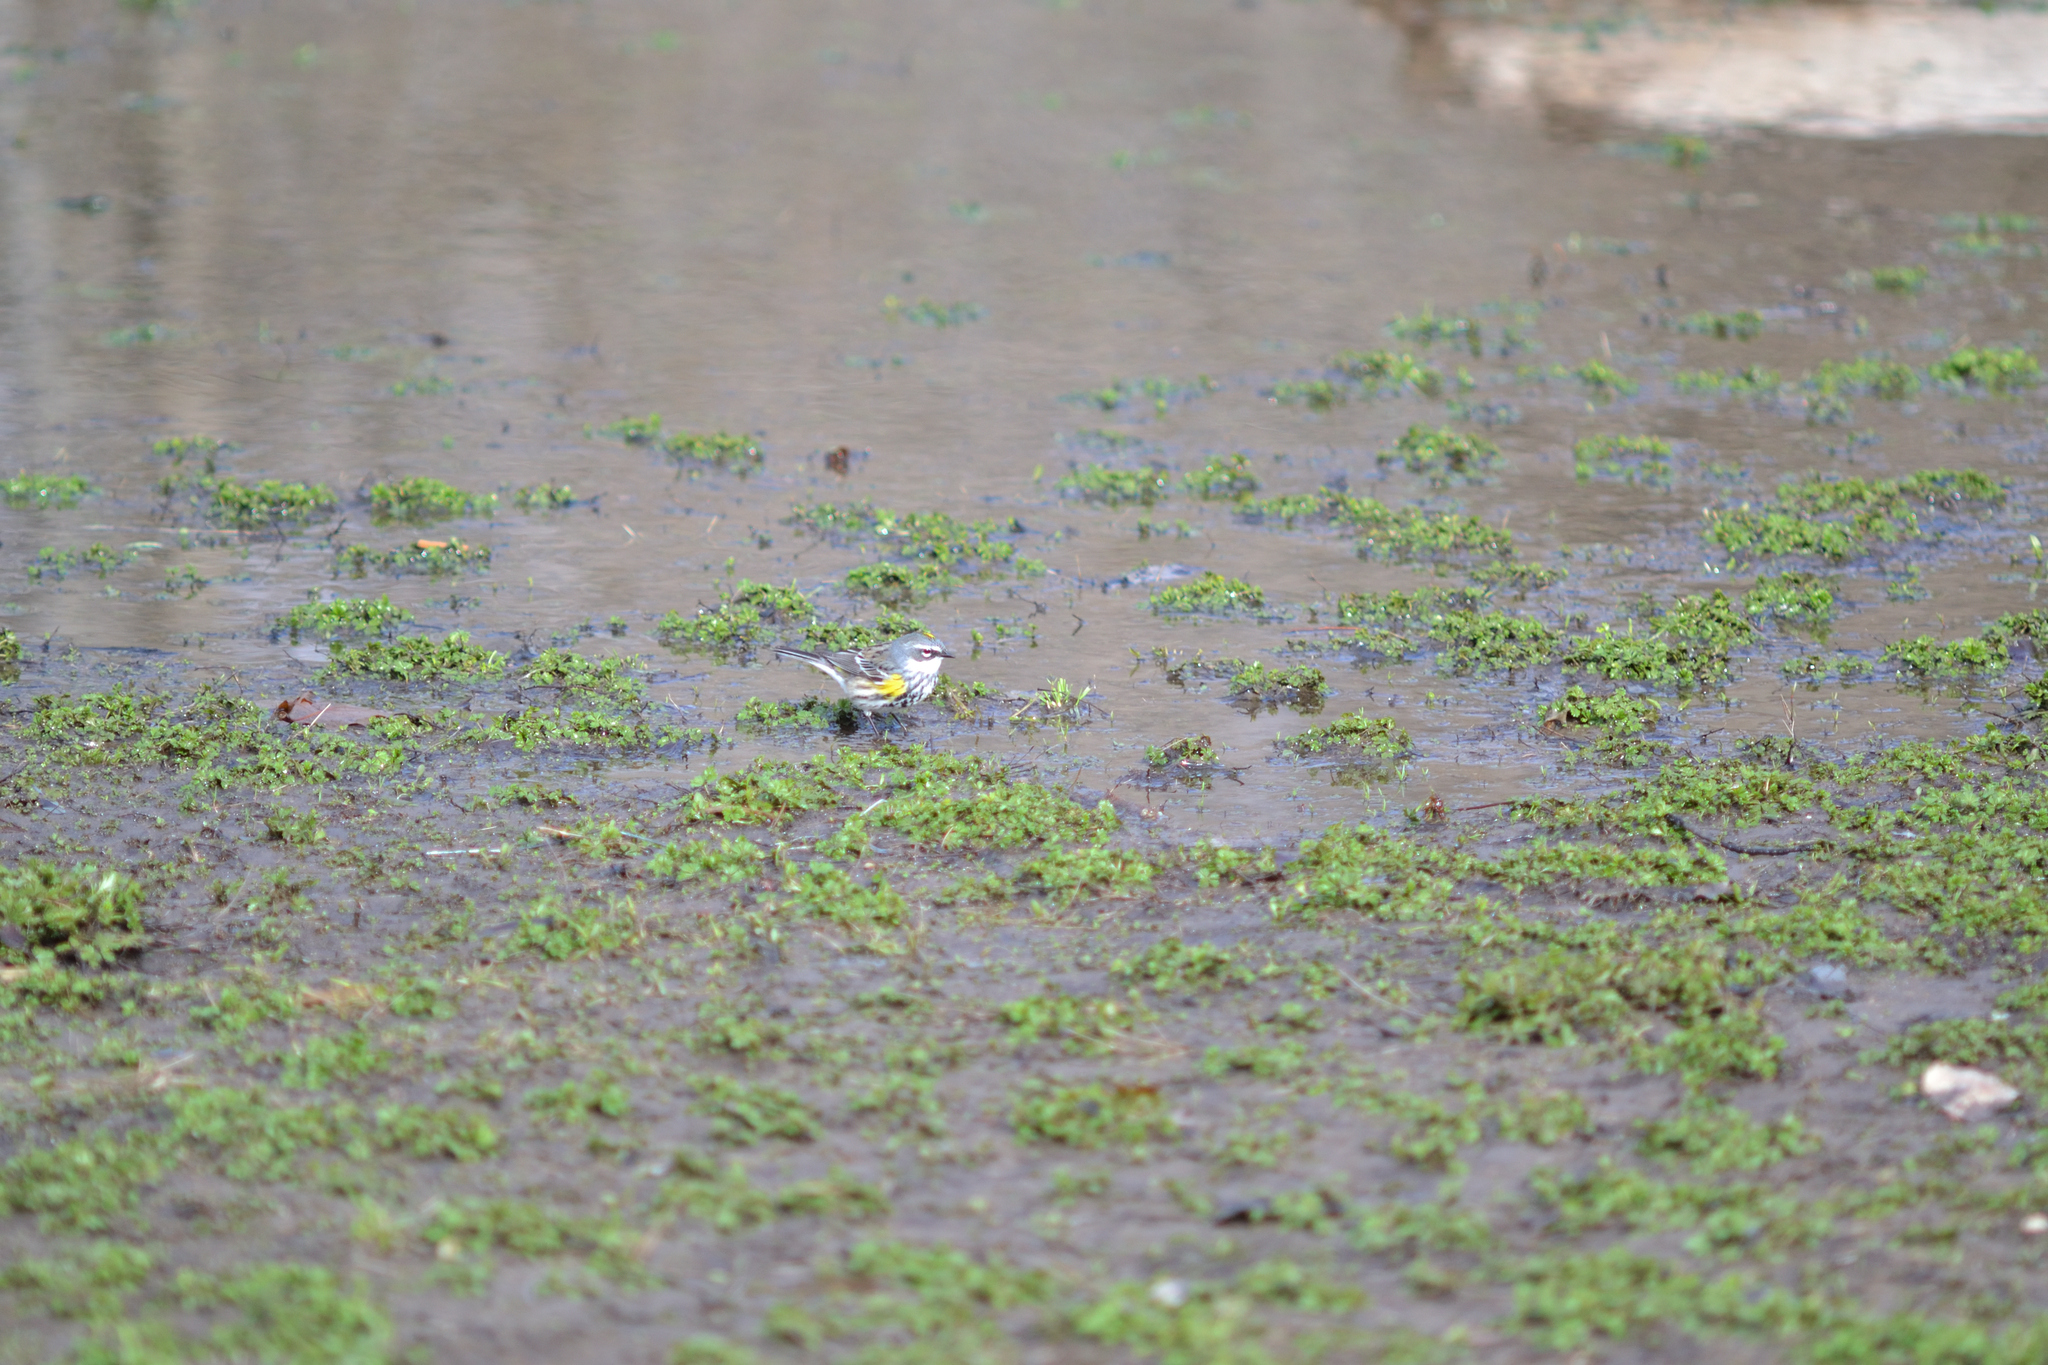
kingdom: Animalia
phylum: Chordata
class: Aves
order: Passeriformes
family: Parulidae
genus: Setophaga
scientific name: Setophaga coronata
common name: Myrtle warbler
